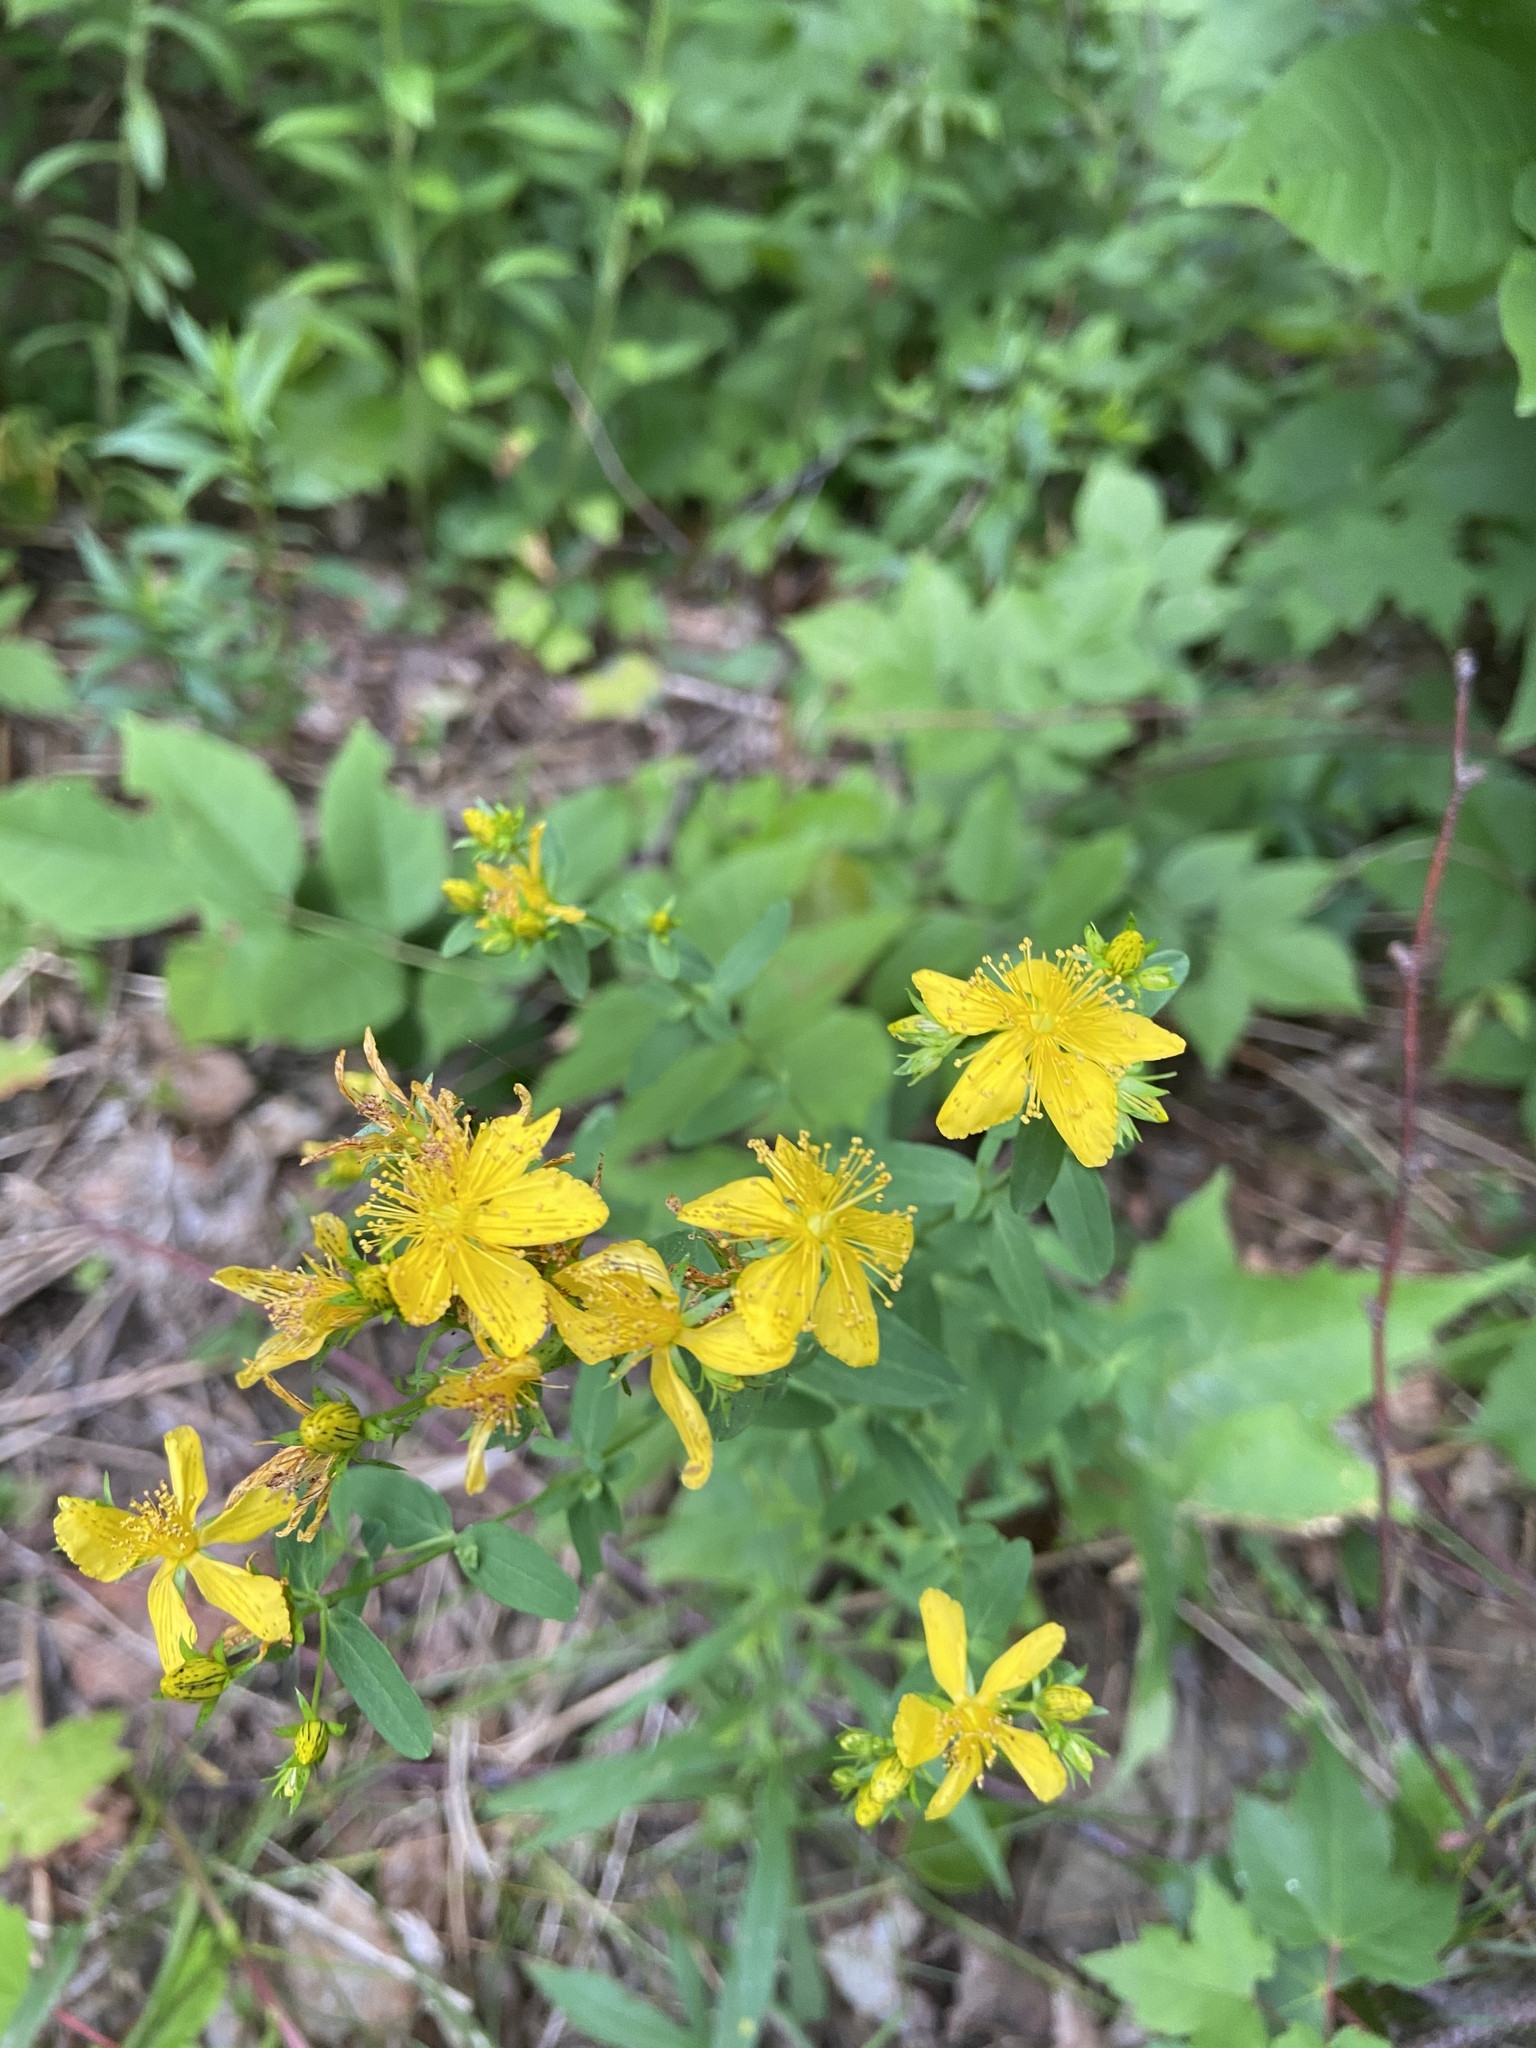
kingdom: Plantae
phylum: Tracheophyta
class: Magnoliopsida
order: Malpighiales
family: Hypericaceae
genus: Hypericum
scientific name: Hypericum perforatum
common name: Common st. johnswort
